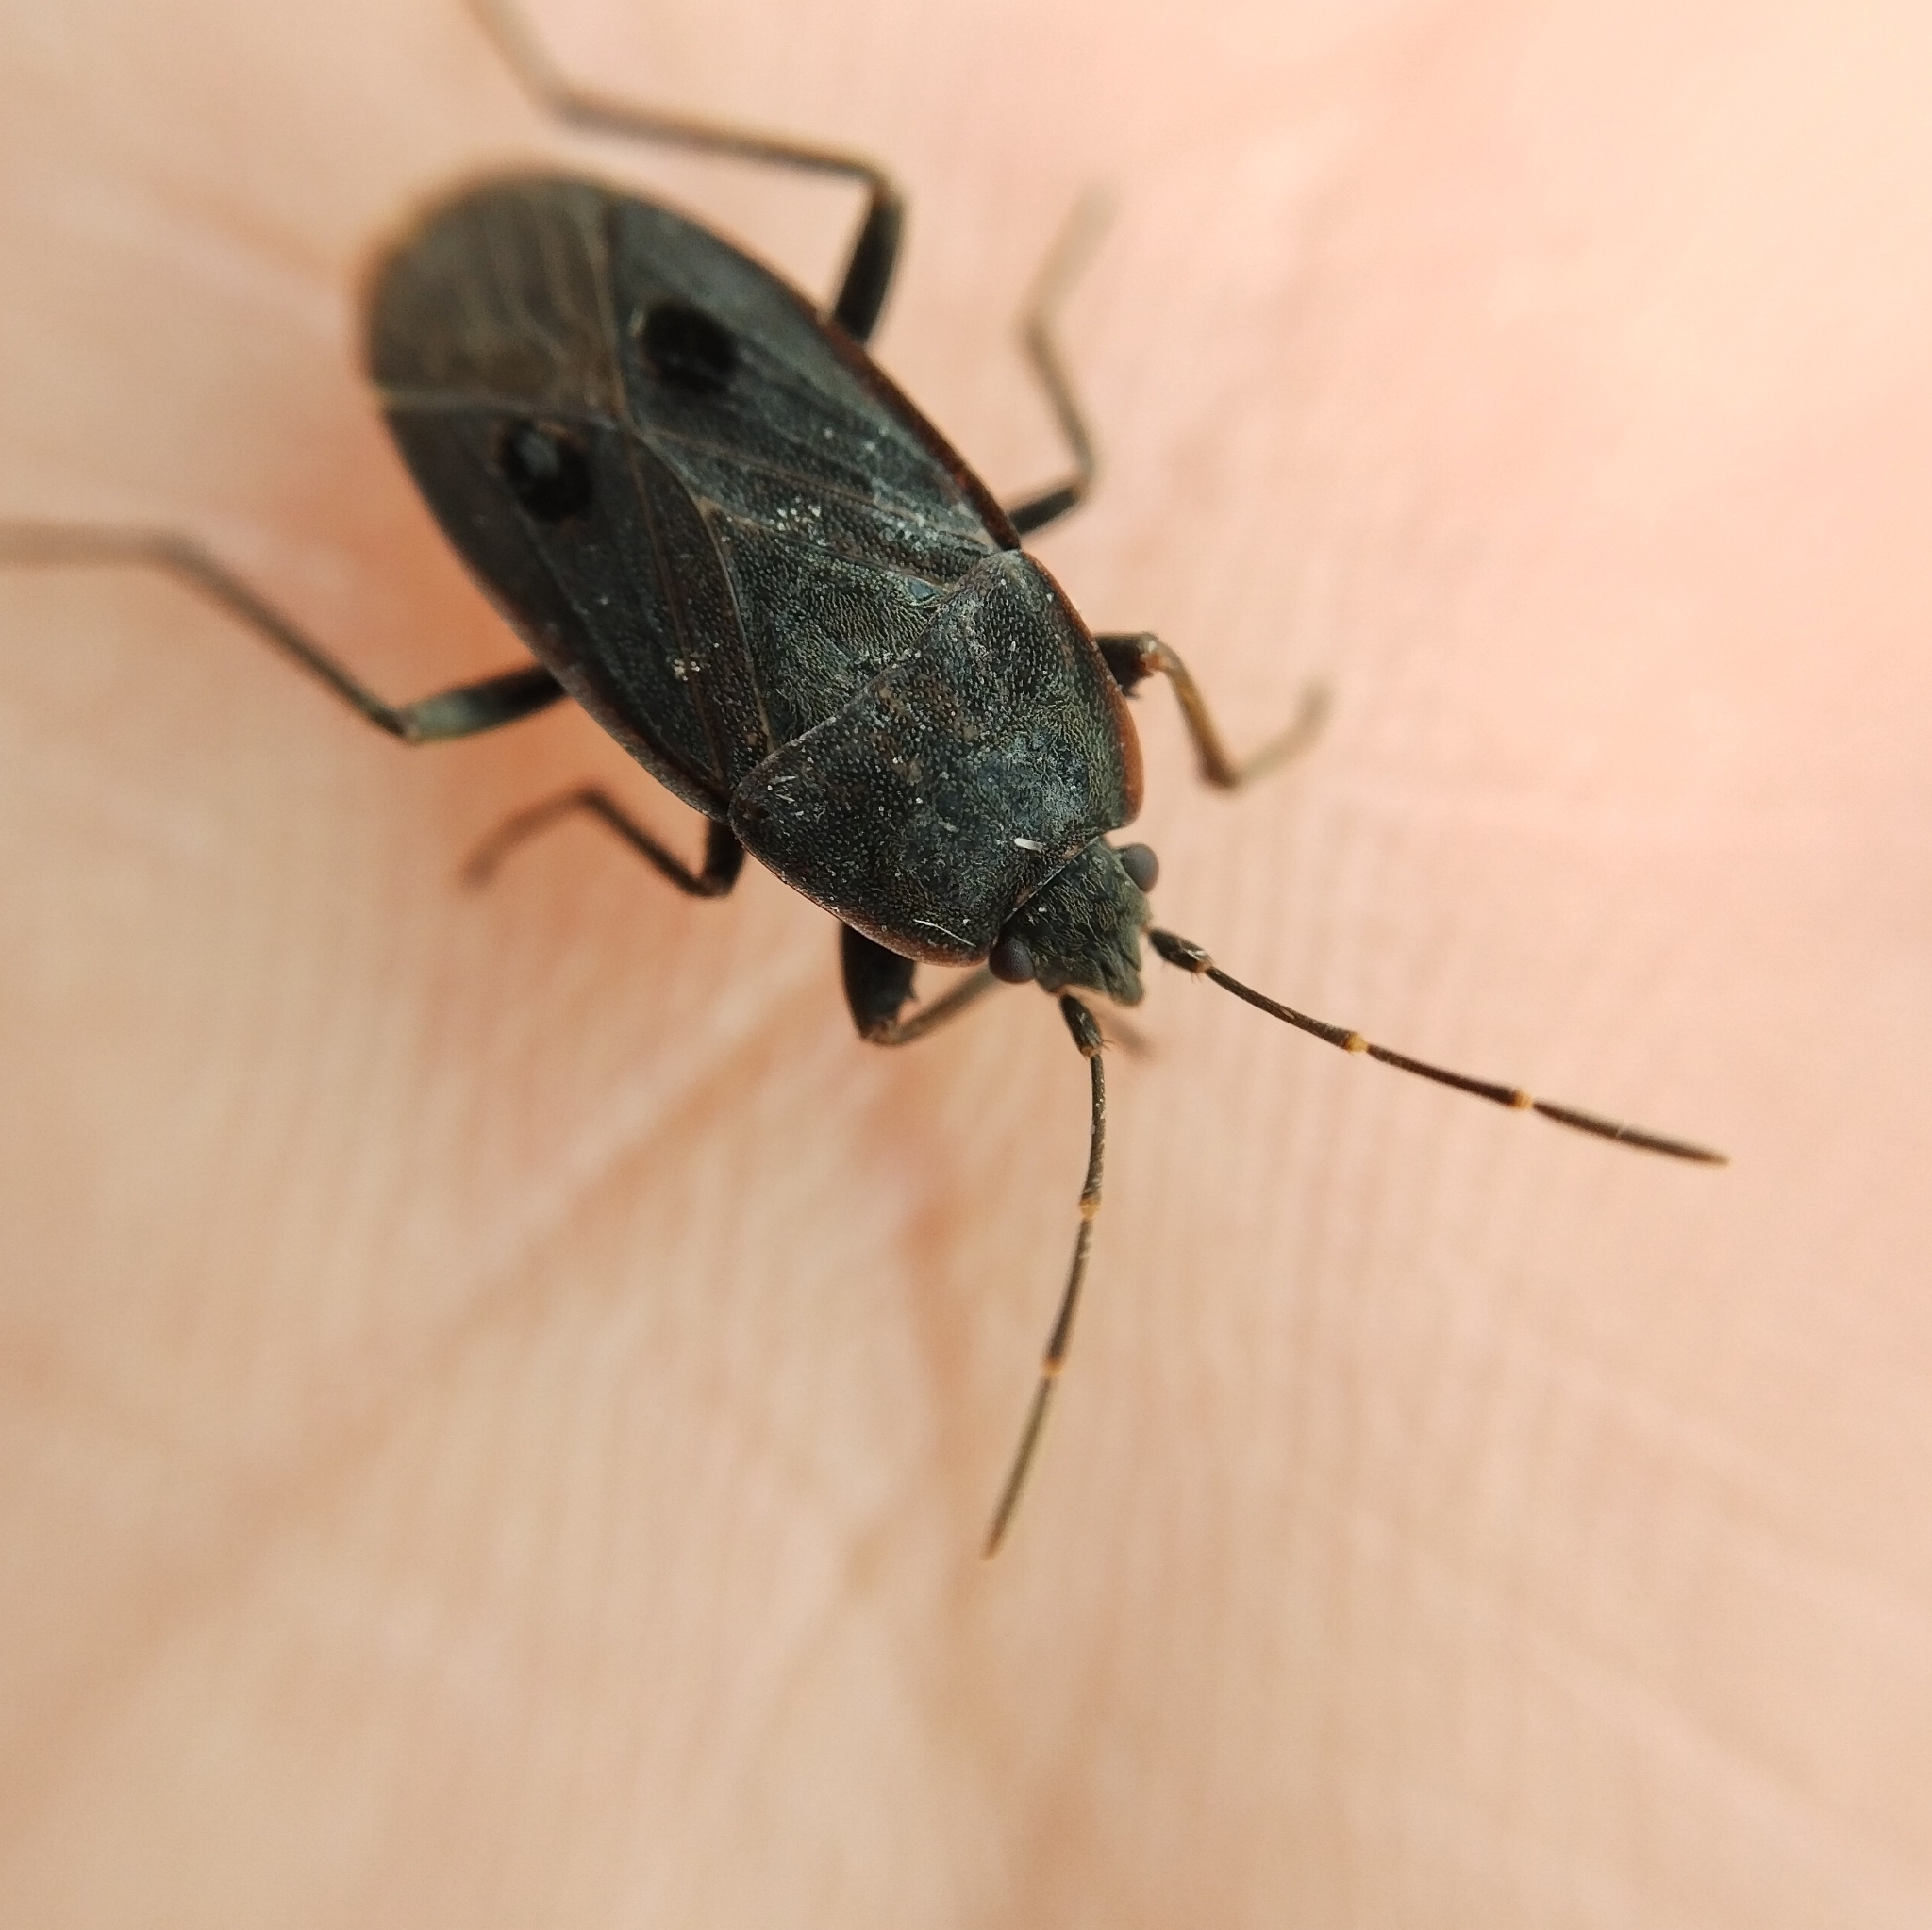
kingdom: Animalia
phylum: Arthropoda
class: Insecta
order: Hemiptera
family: Rhyparochromidae
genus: Graptopeltus
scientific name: Graptopeltus validus
